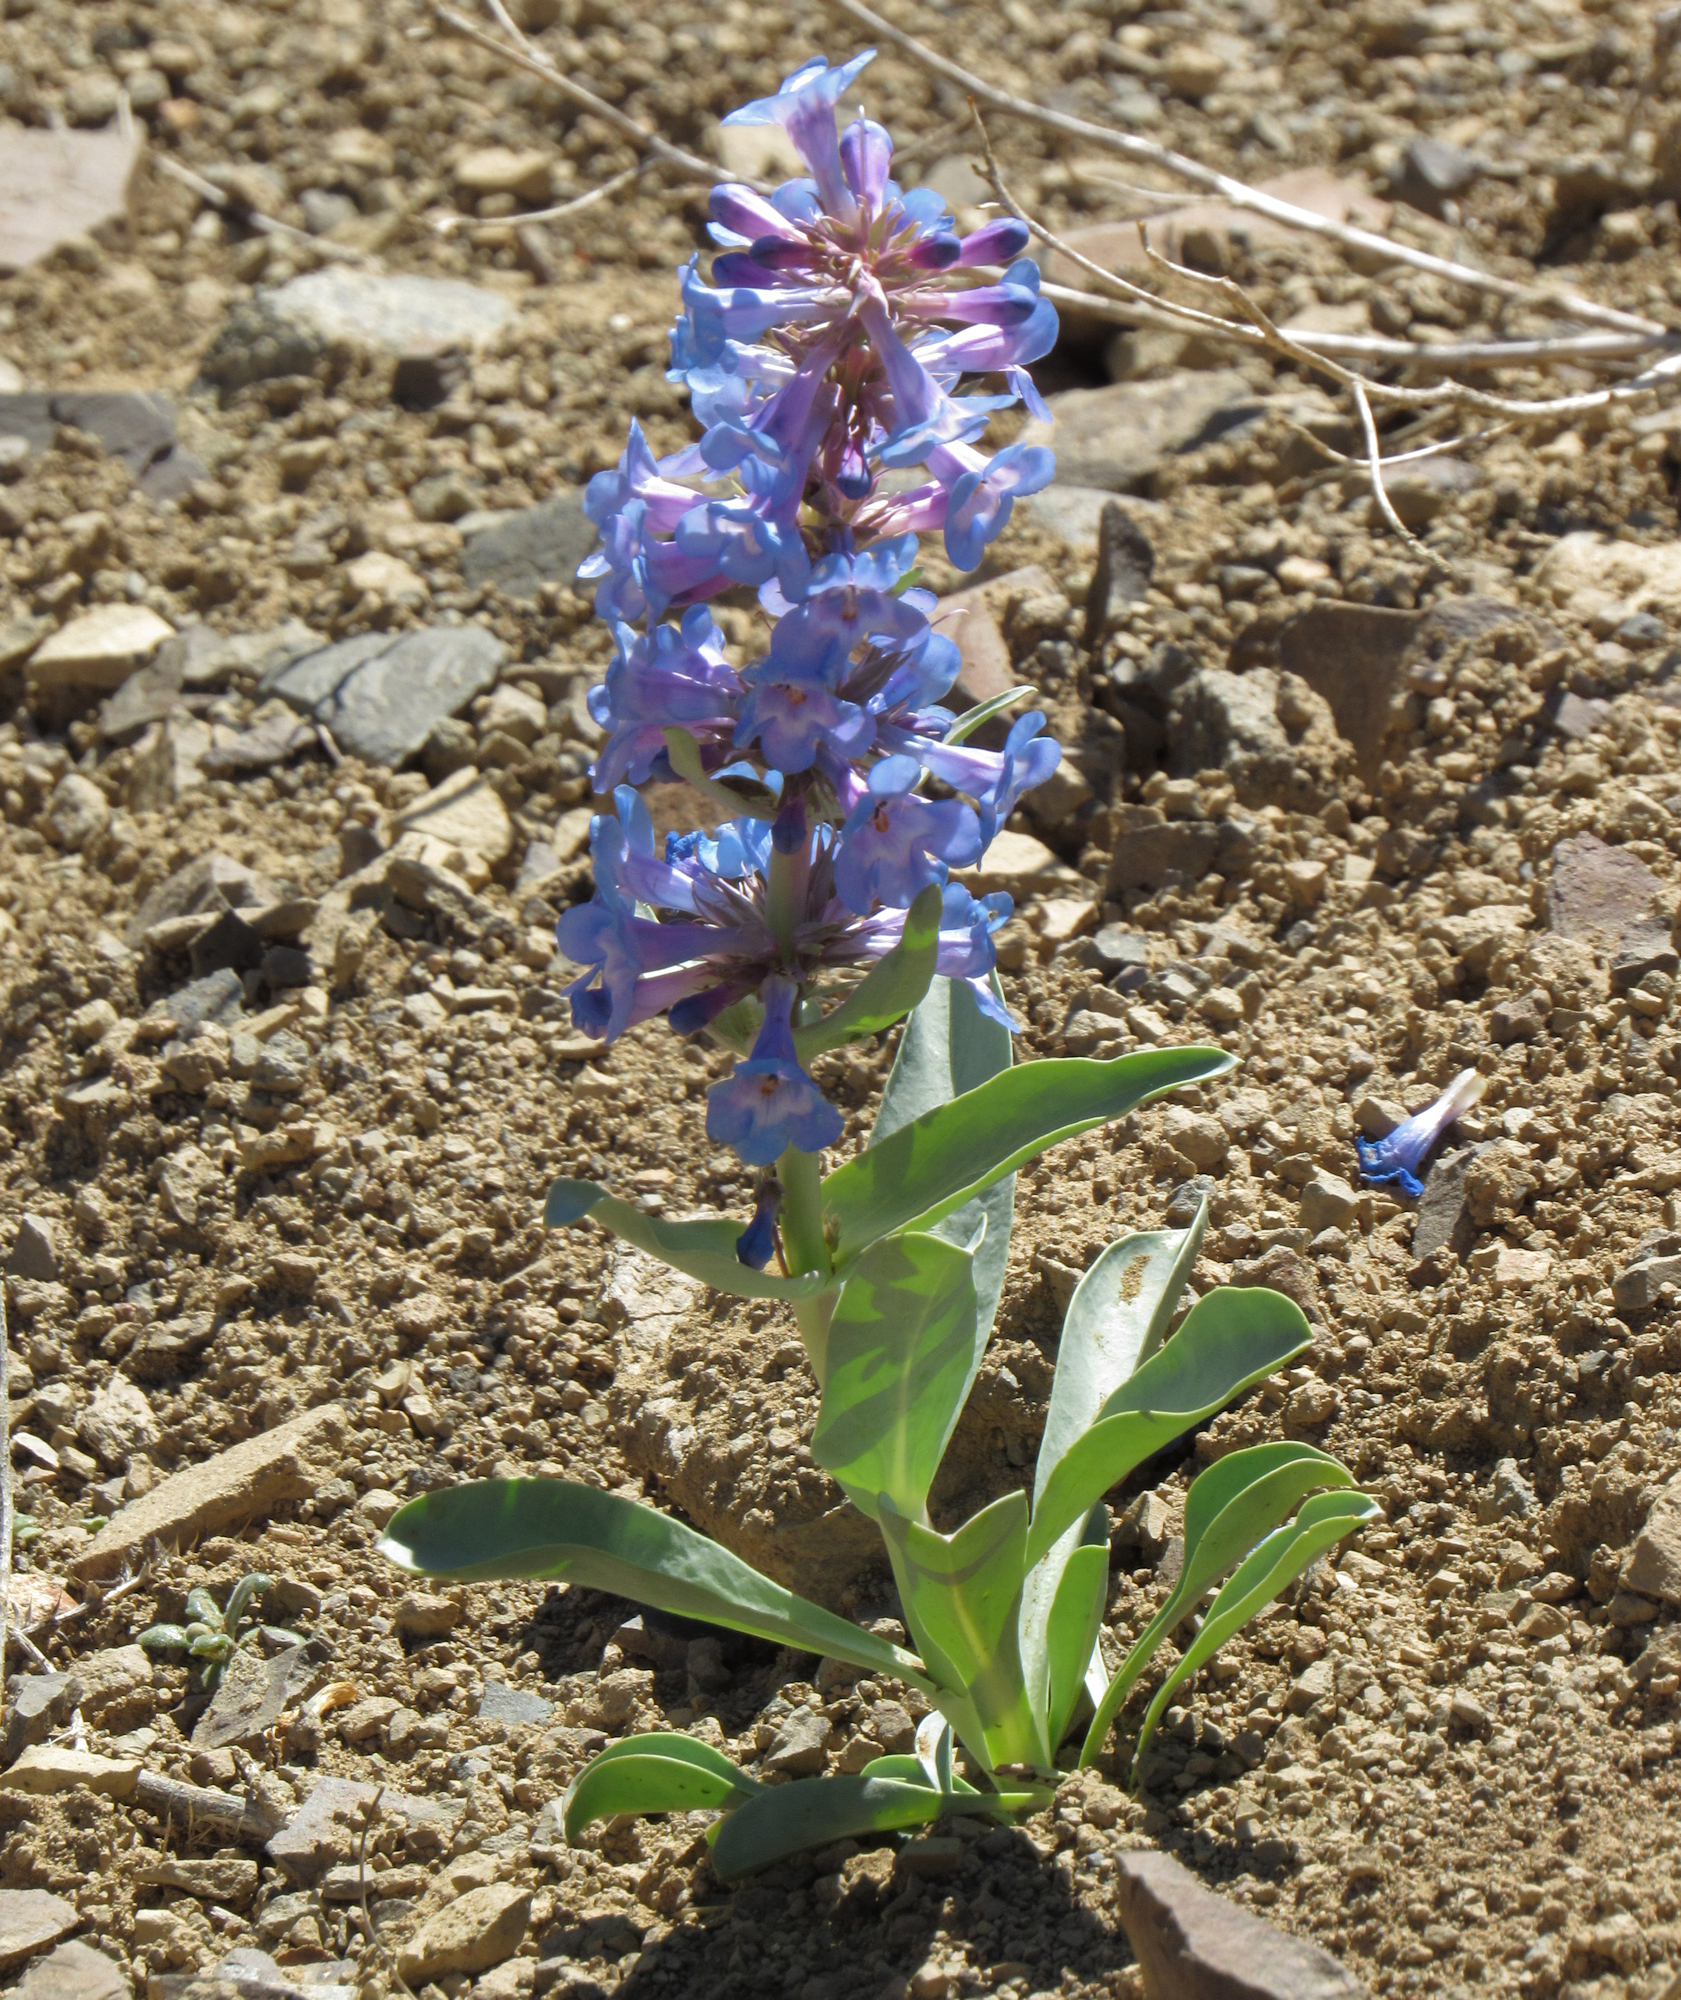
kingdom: Plantae
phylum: Tracheophyta
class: Magnoliopsida
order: Lamiales
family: Plantaginaceae
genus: Penstemon
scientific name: Penstemon nitidus
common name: Shining penstemon
